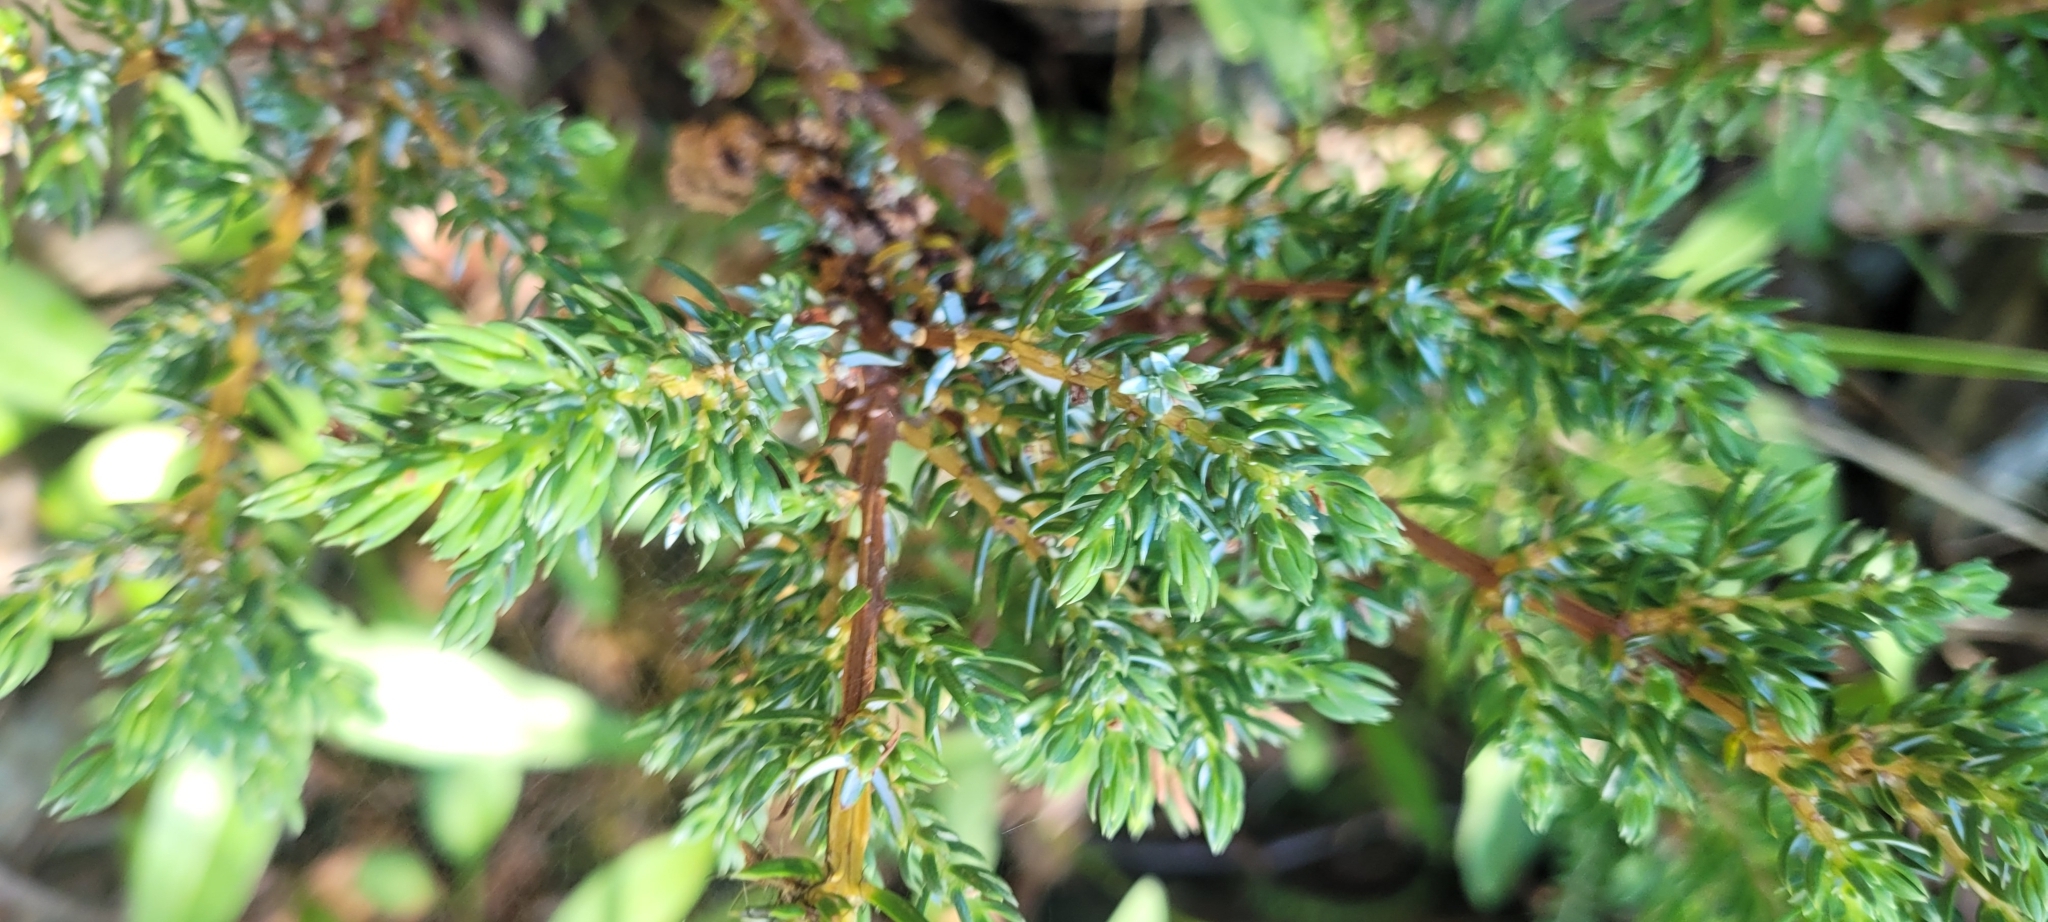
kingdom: Plantae
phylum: Tracheophyta
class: Pinopsida
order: Pinales
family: Cupressaceae
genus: Juniperus
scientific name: Juniperus communis
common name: Common juniper
